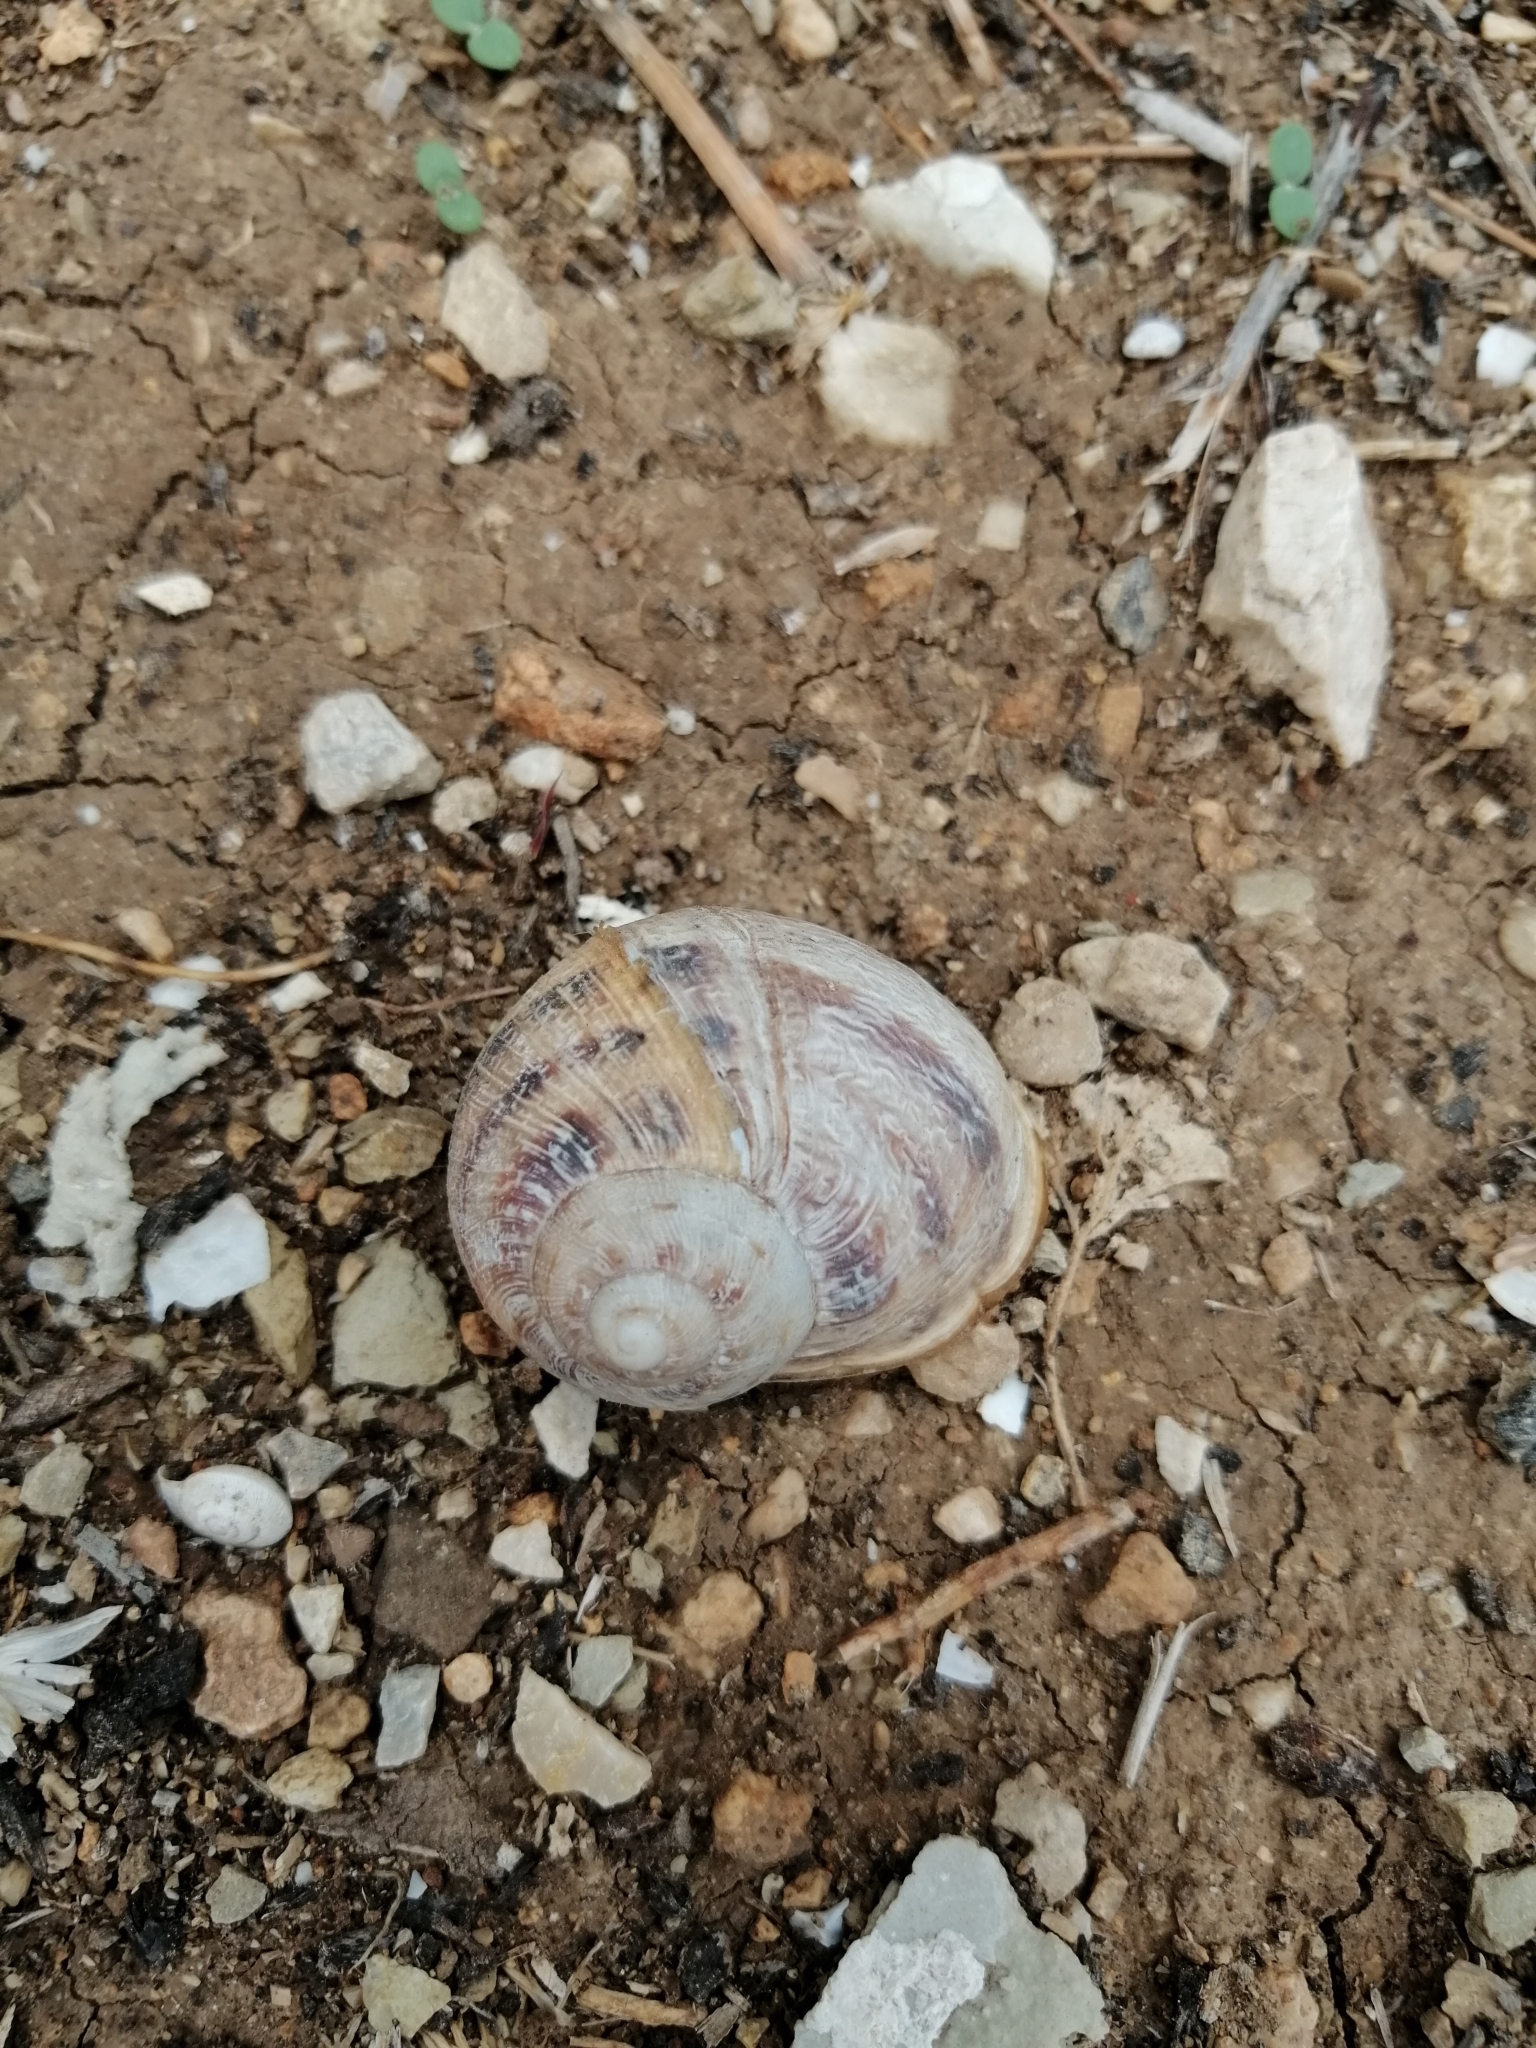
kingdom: Animalia
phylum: Mollusca
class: Gastropoda
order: Stylommatophora
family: Helicidae
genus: Cornu
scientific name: Cornu aspersum
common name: Brown garden snail
